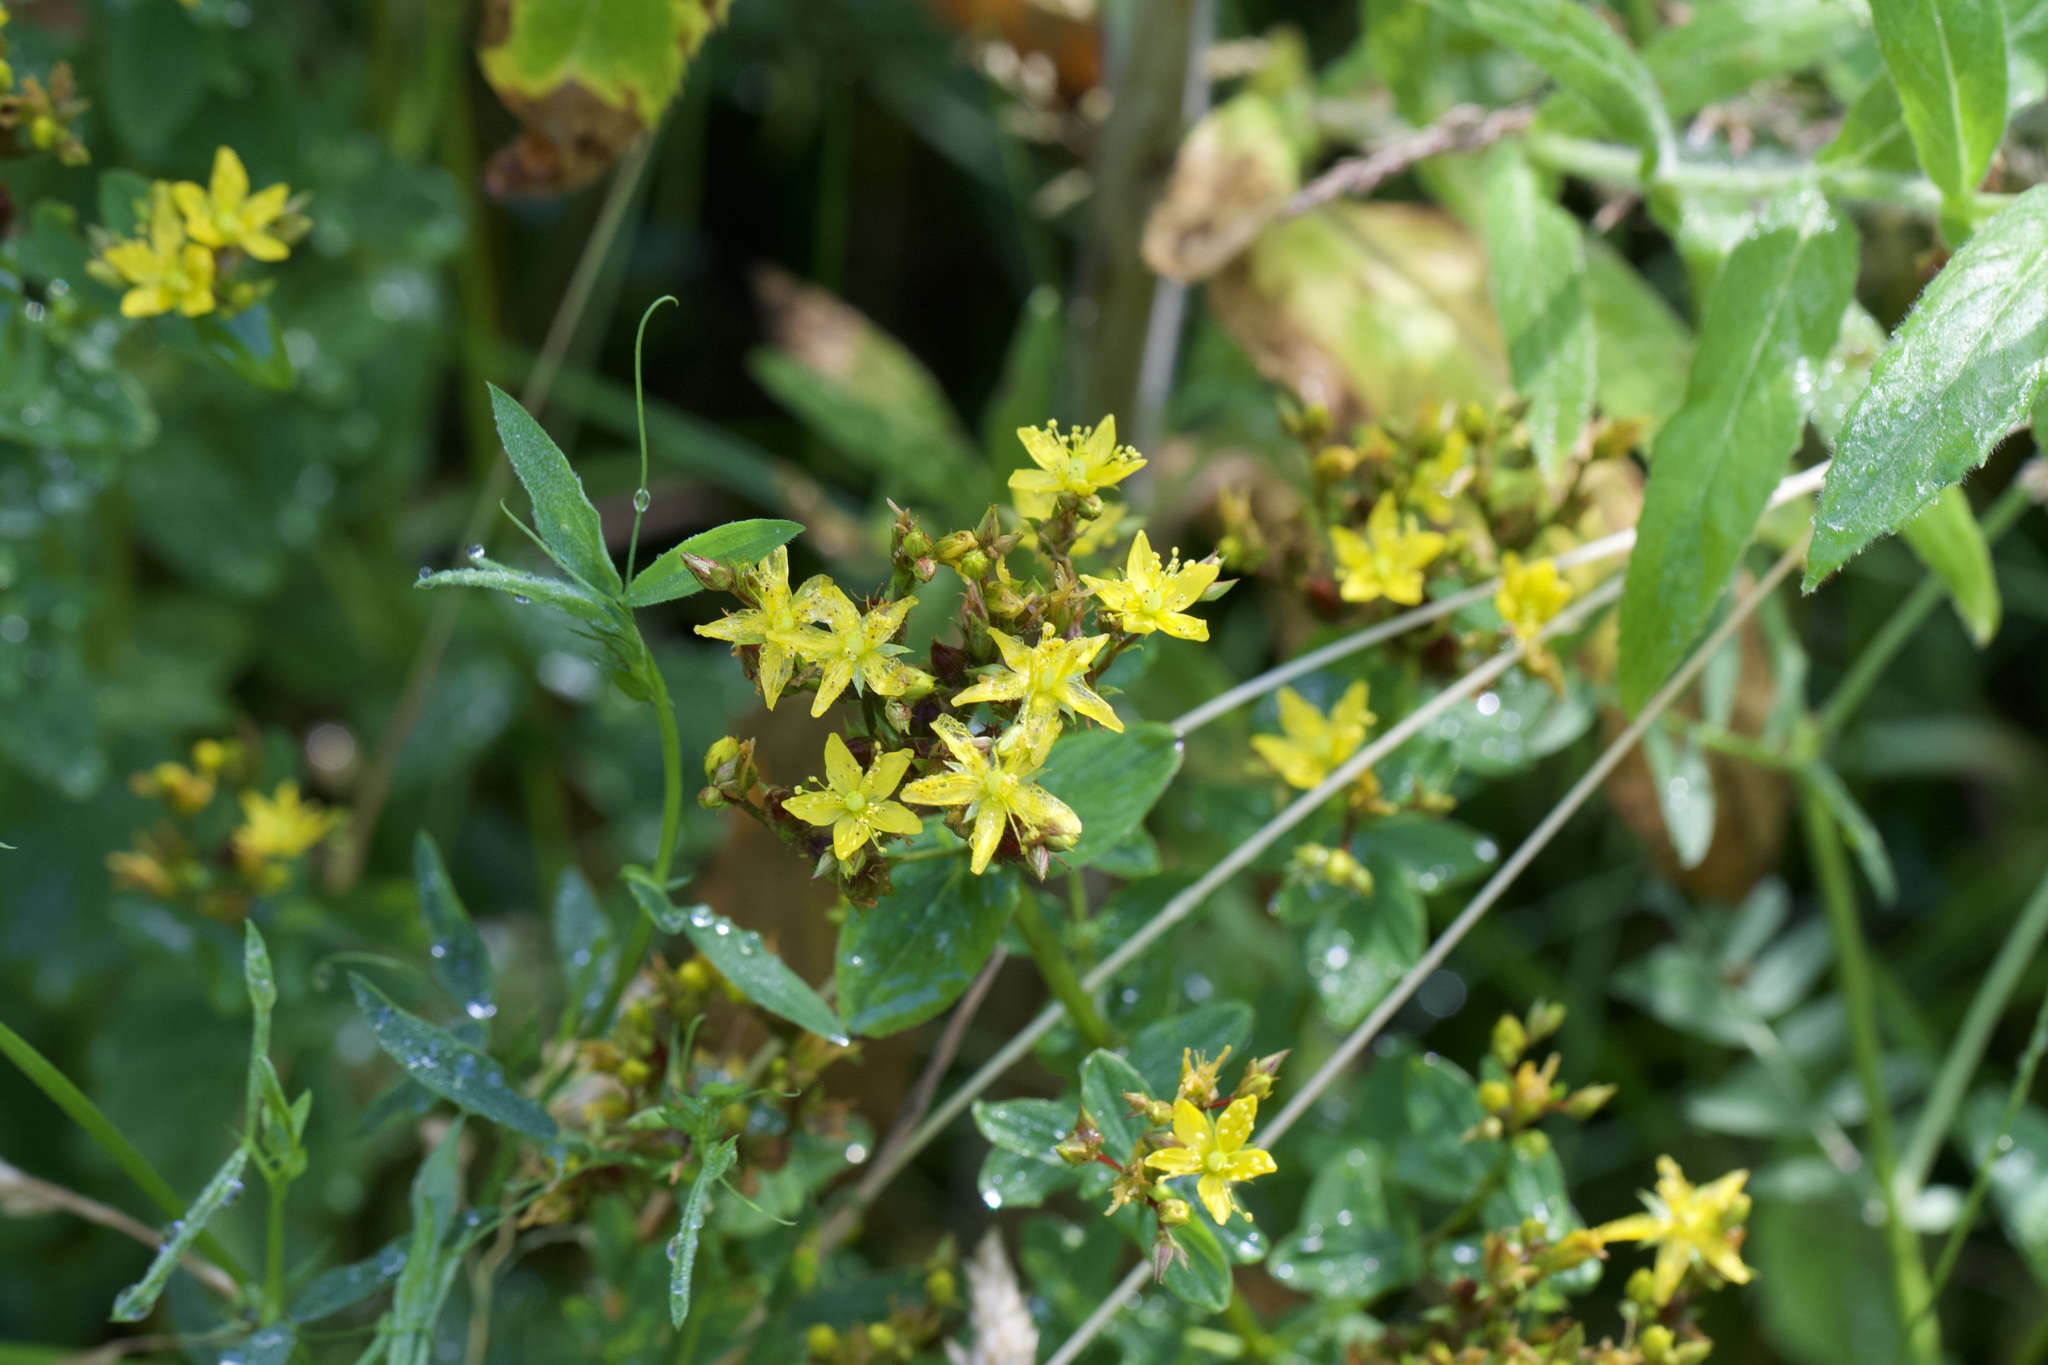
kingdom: Plantae
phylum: Tracheophyta
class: Magnoliopsida
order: Malpighiales
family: Hypericaceae
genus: Hypericum
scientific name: Hypericum tetrapterum
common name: Square-stalked st. john's-wort
